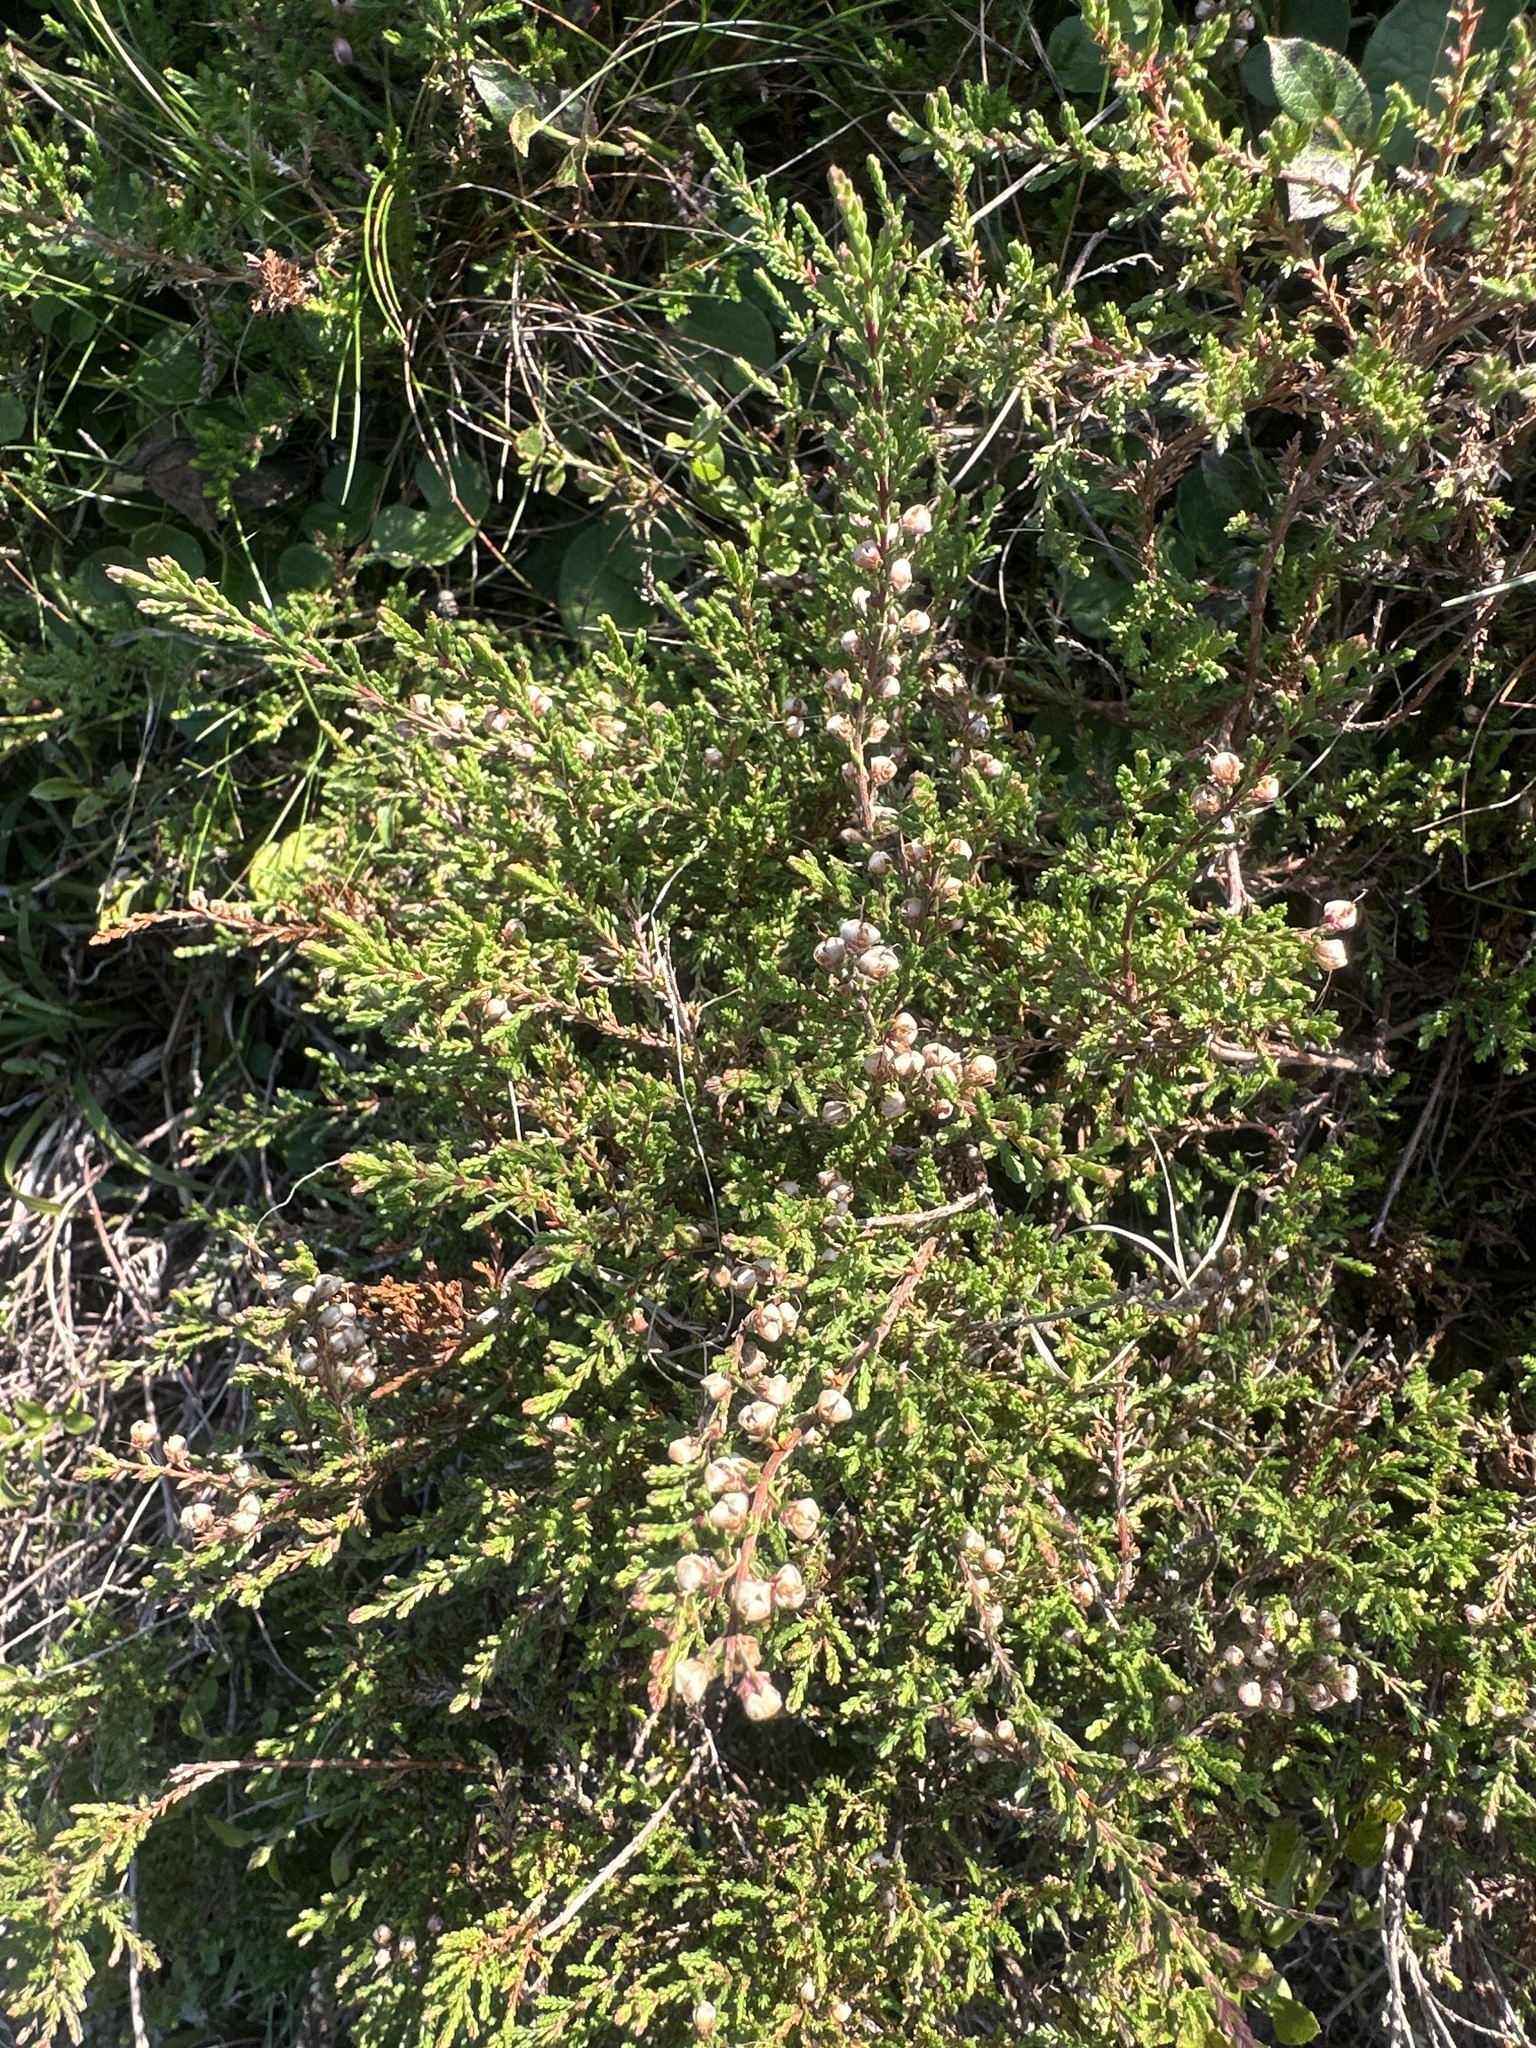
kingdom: Plantae
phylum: Tracheophyta
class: Magnoliopsida
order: Ericales
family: Ericaceae
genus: Calluna
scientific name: Calluna vulgaris
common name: Heather
